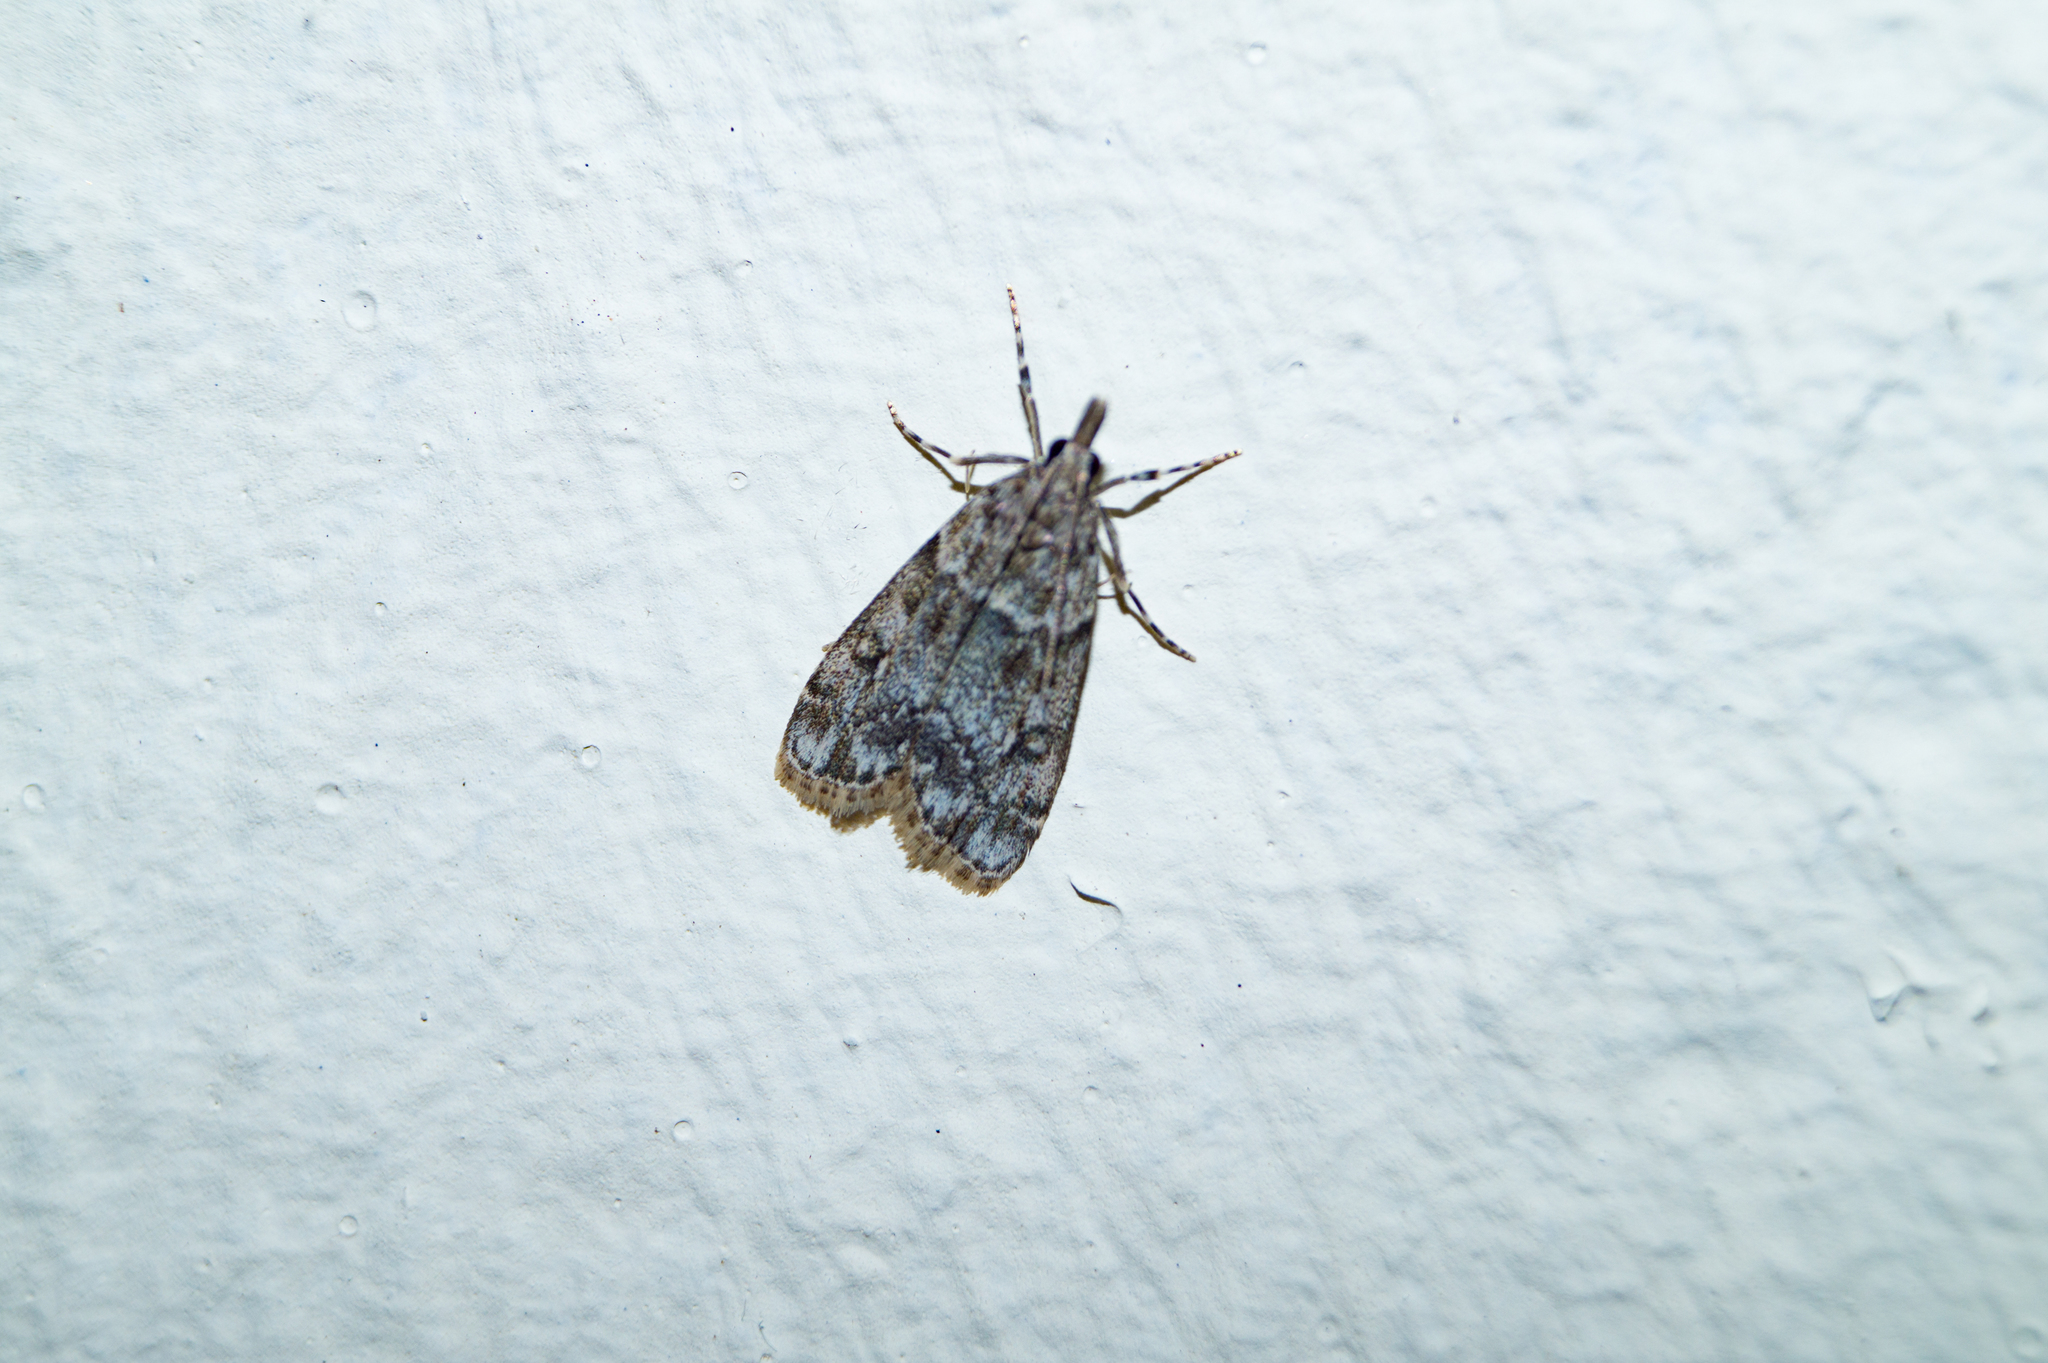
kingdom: Animalia
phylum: Arthropoda
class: Insecta
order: Lepidoptera
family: Crambidae
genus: Eudonia
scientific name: Eudonia lacustrata
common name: Little grey
